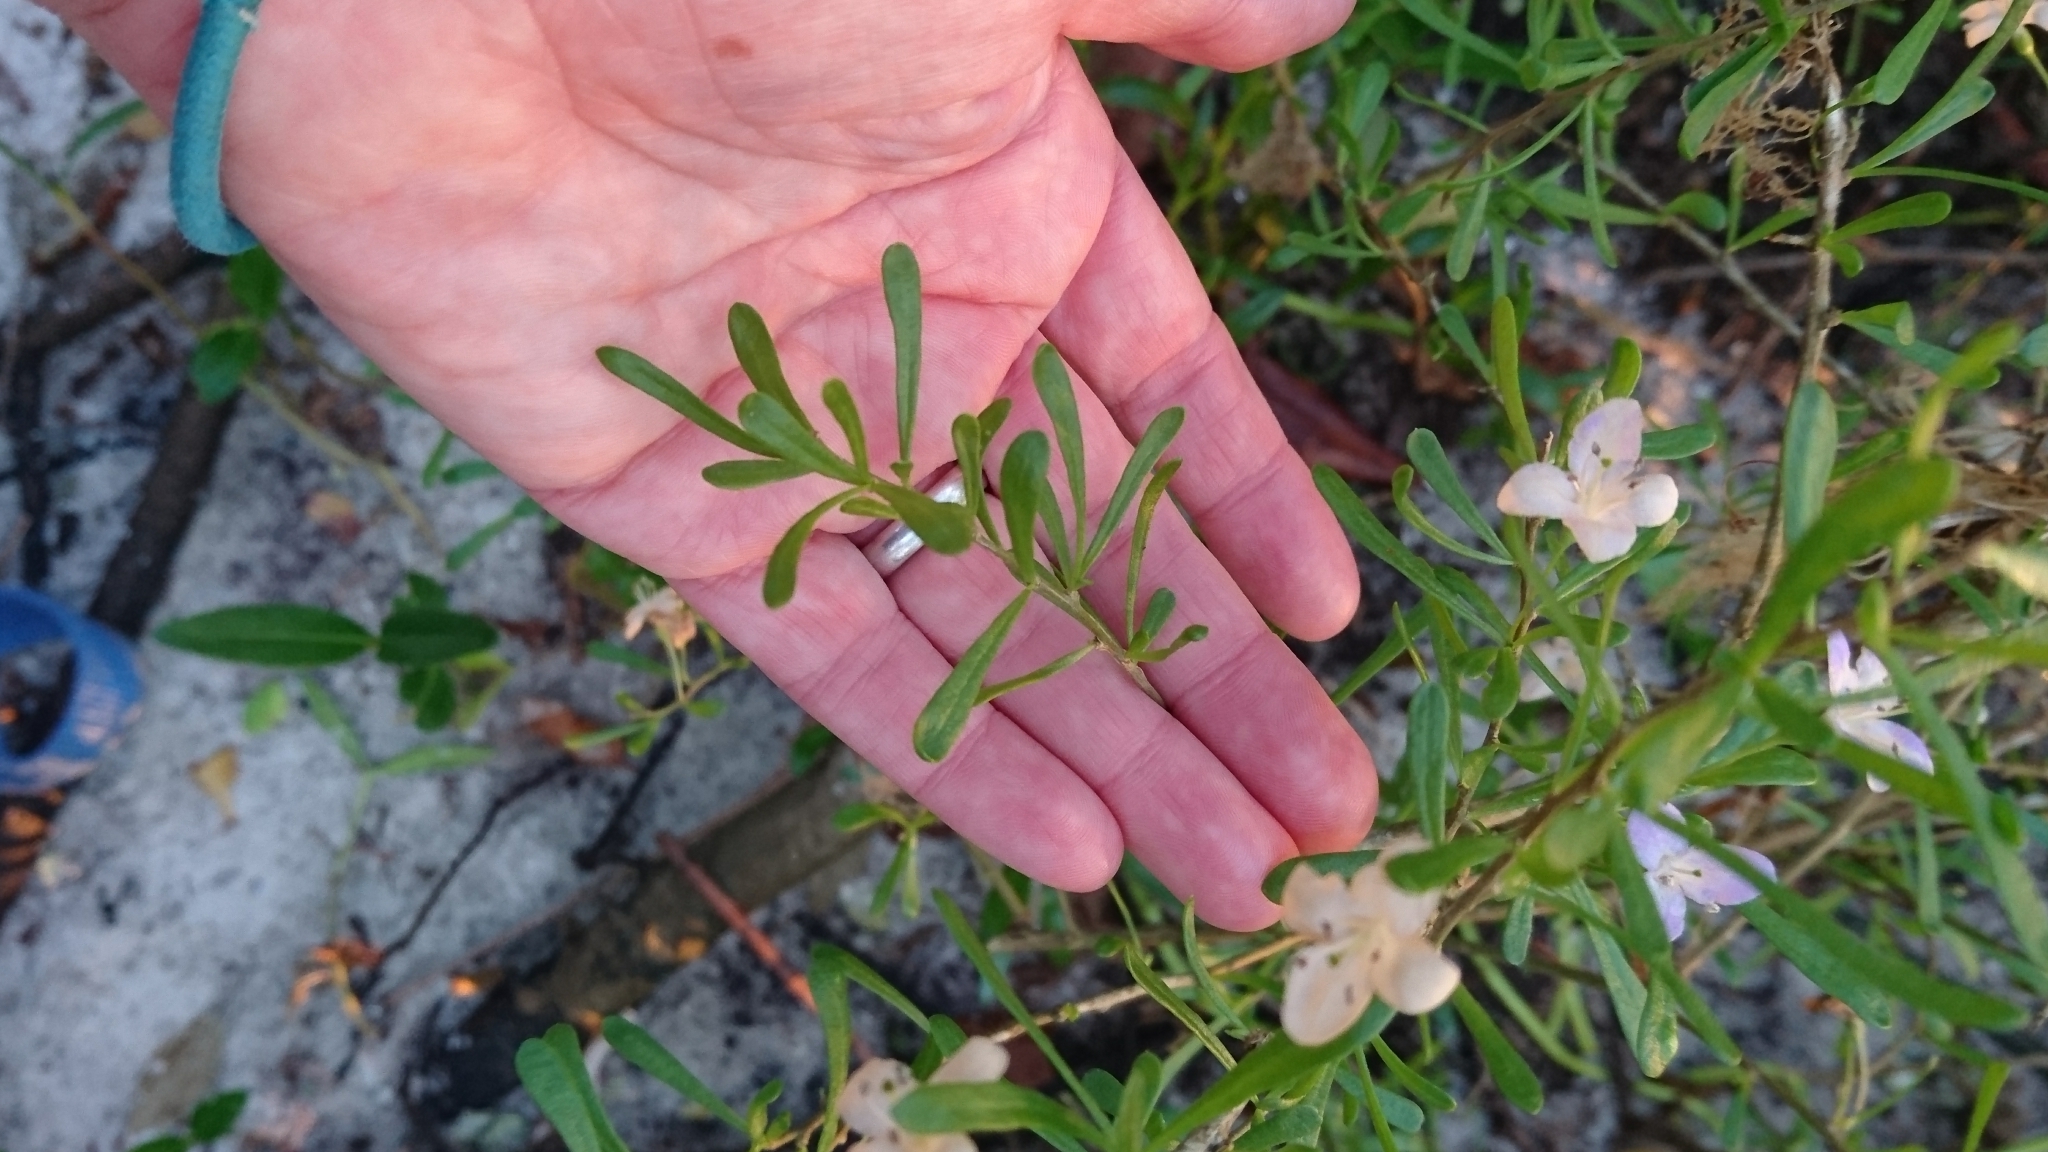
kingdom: Plantae
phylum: Tracheophyta
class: Magnoliopsida
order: Solanales
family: Solanaceae
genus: Lycium
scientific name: Lycium carolinianum
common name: Christmasberry
